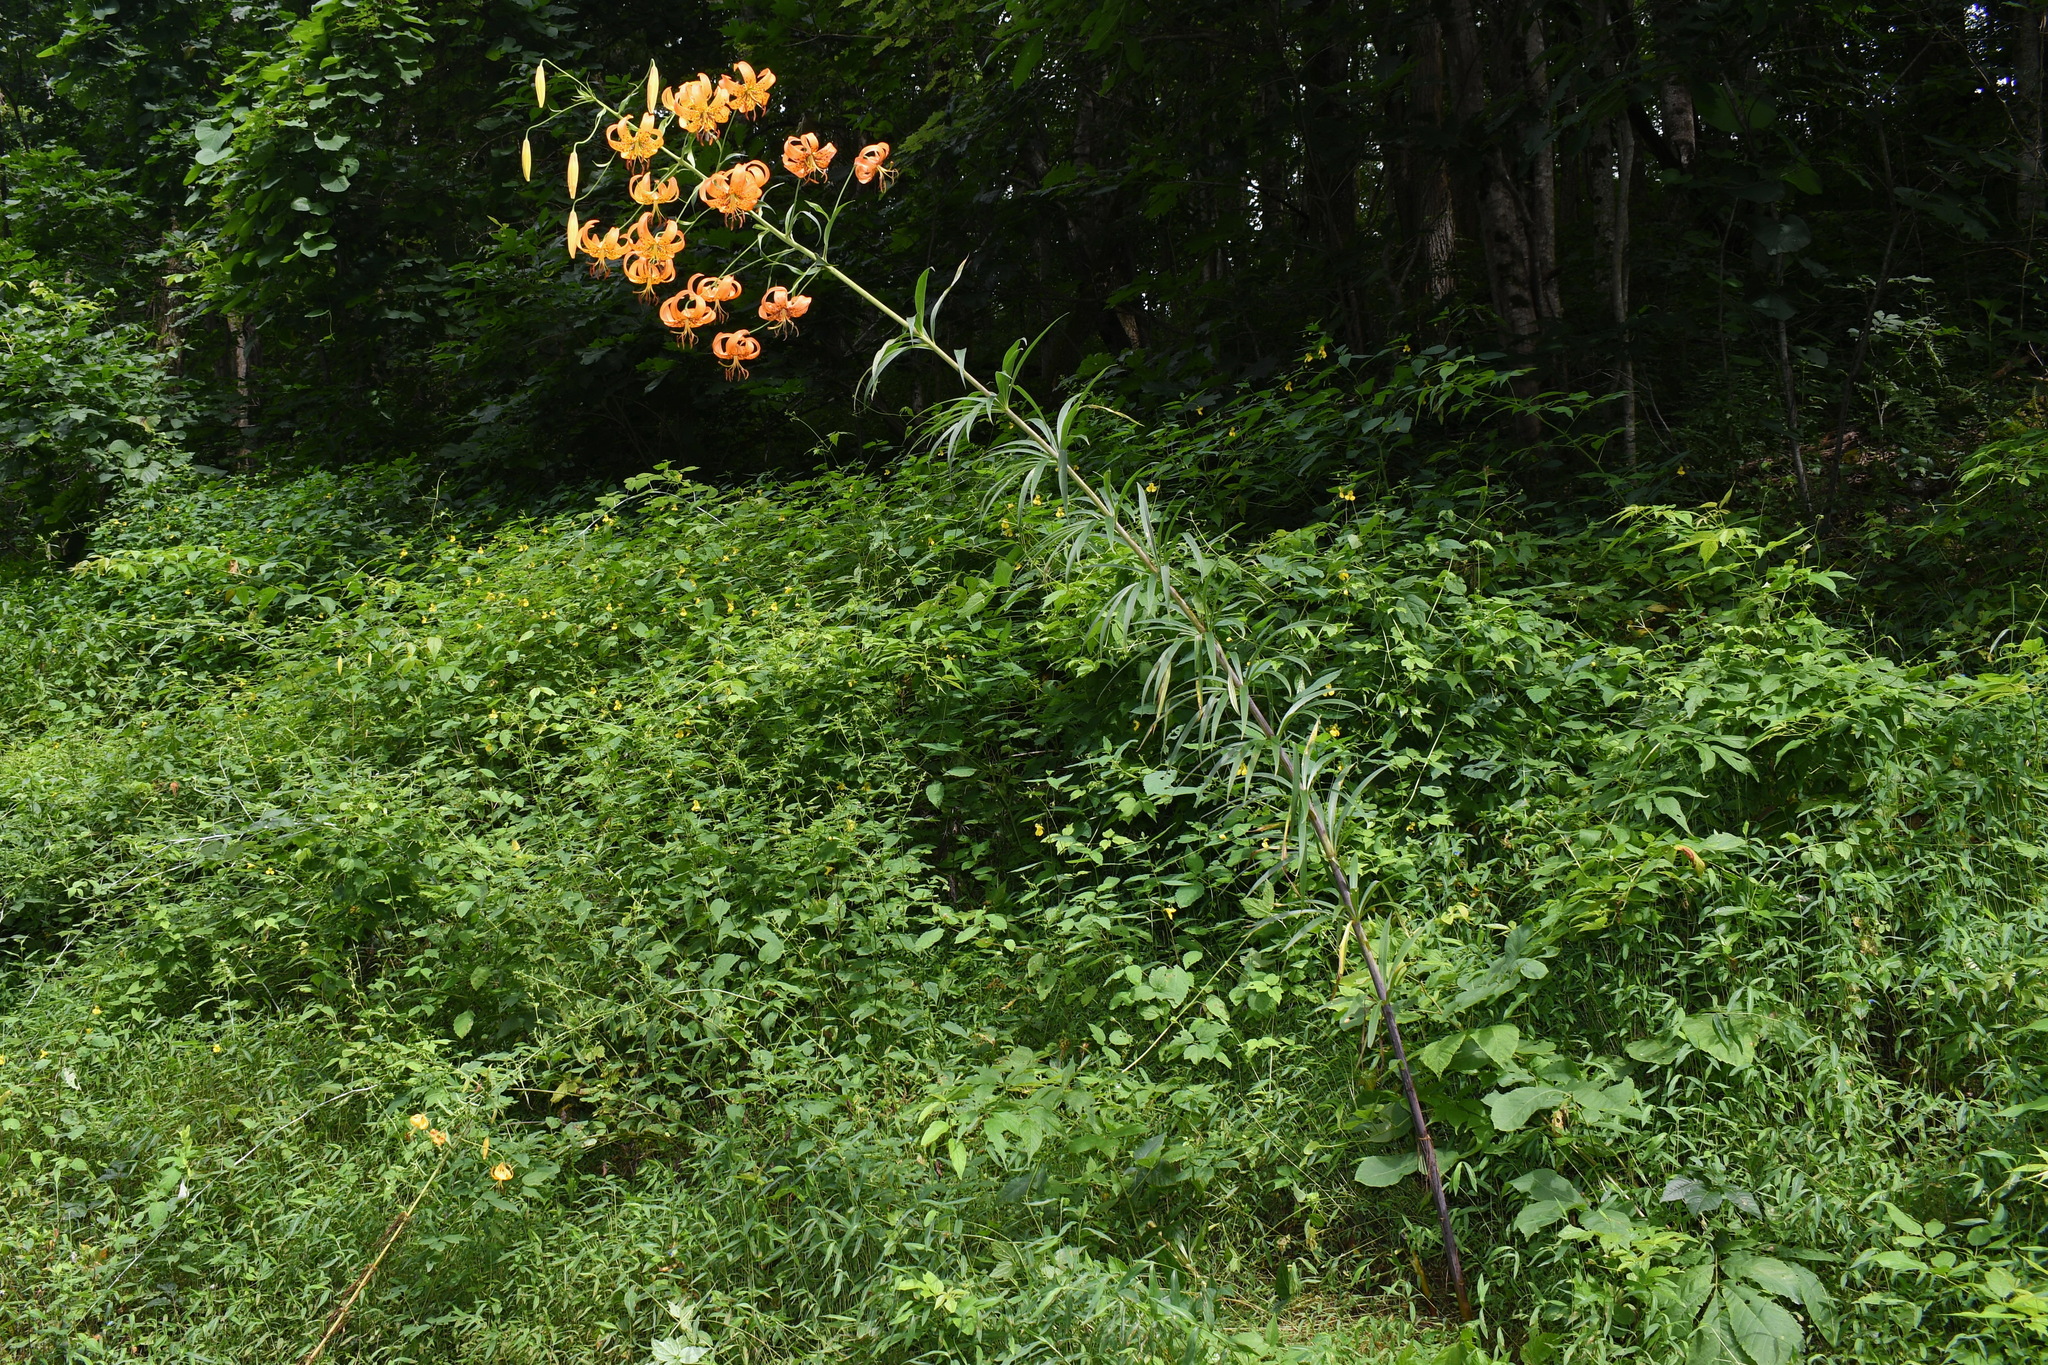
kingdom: Plantae
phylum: Tracheophyta
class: Liliopsida
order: Liliales
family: Liliaceae
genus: Lilium
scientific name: Lilium superbum
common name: American turk's-cap lily
